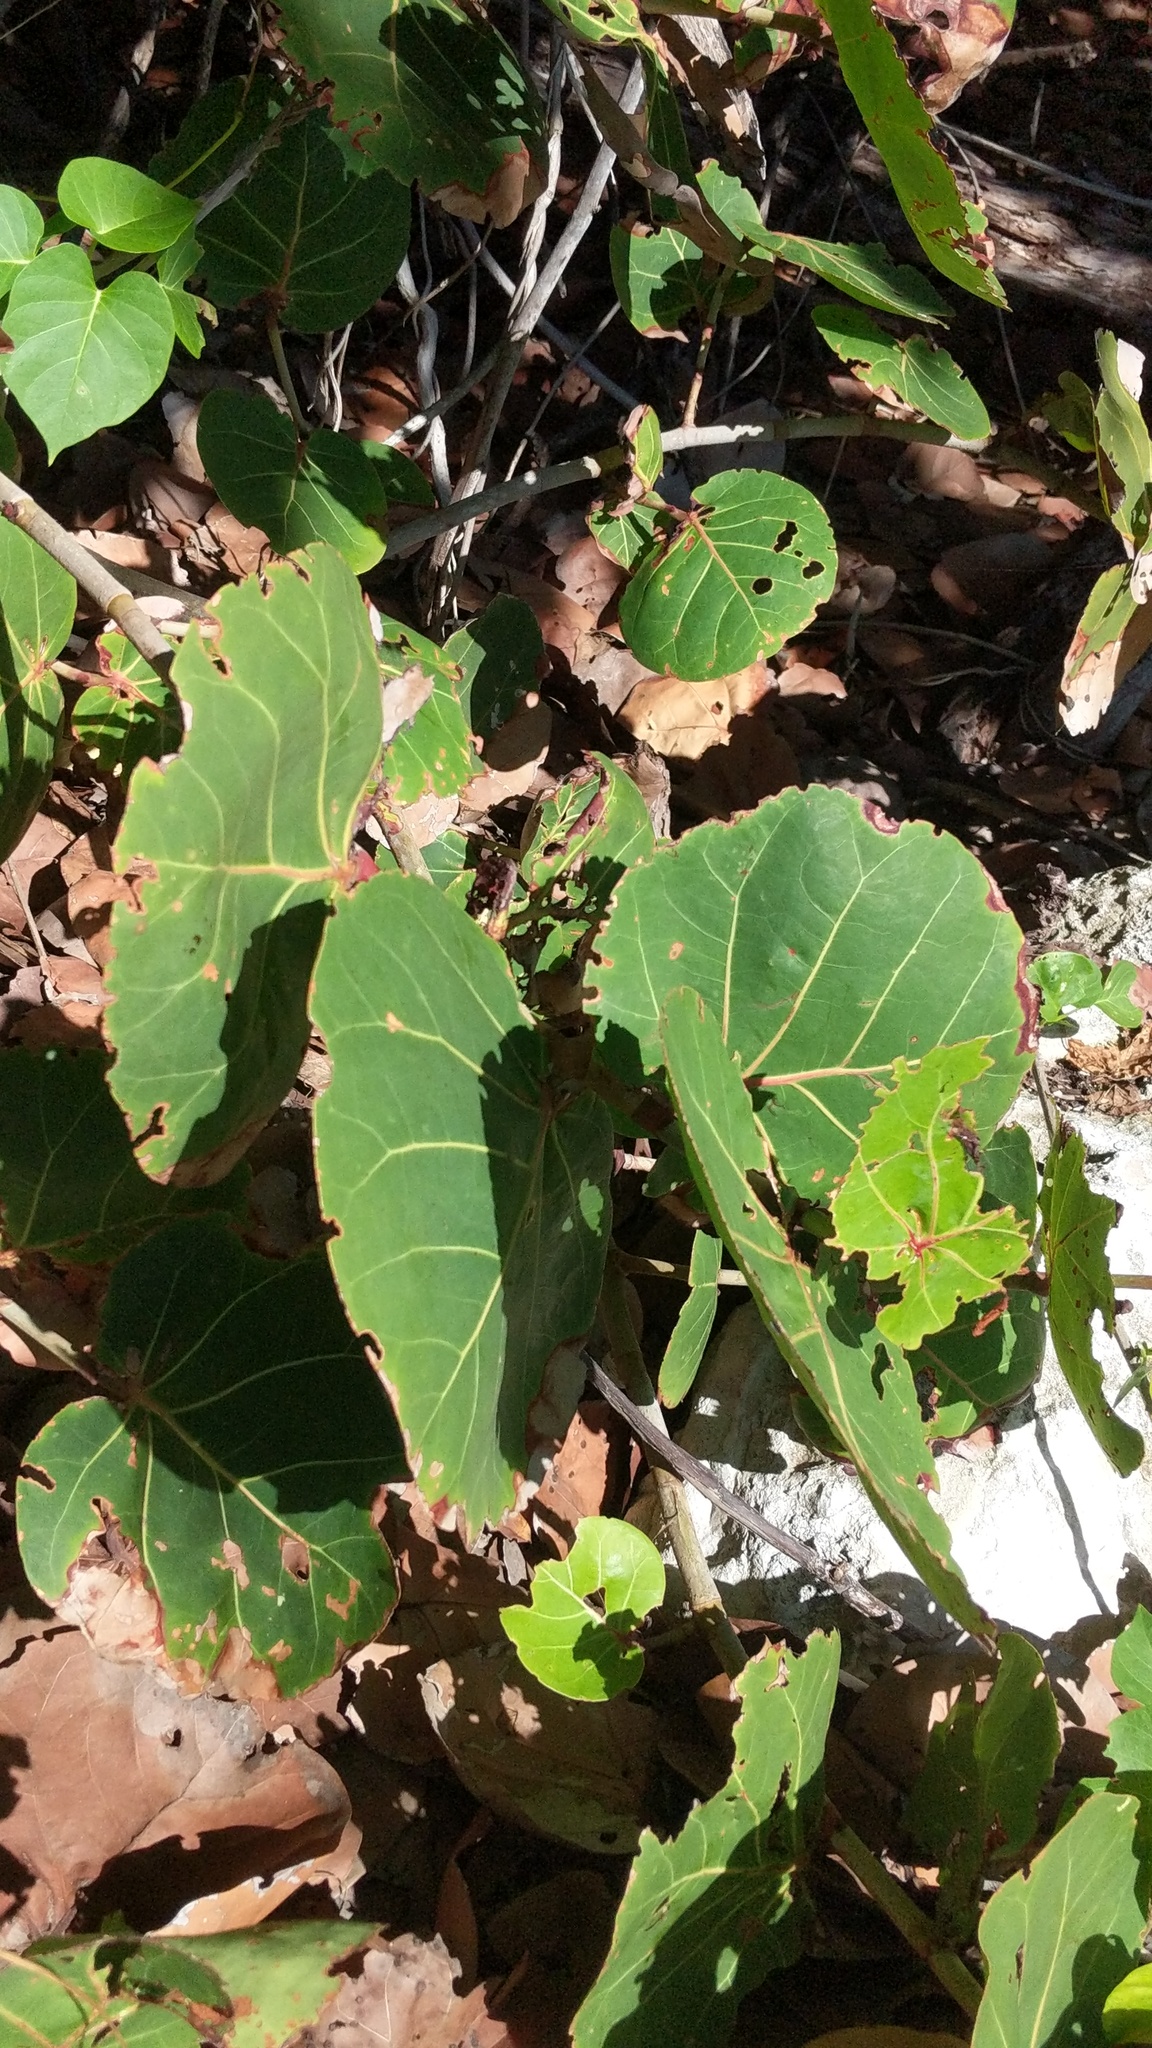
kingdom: Plantae
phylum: Tracheophyta
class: Magnoliopsida
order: Caryophyllales
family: Polygonaceae
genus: Coccoloba
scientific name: Coccoloba uvifera
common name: Seagrape
